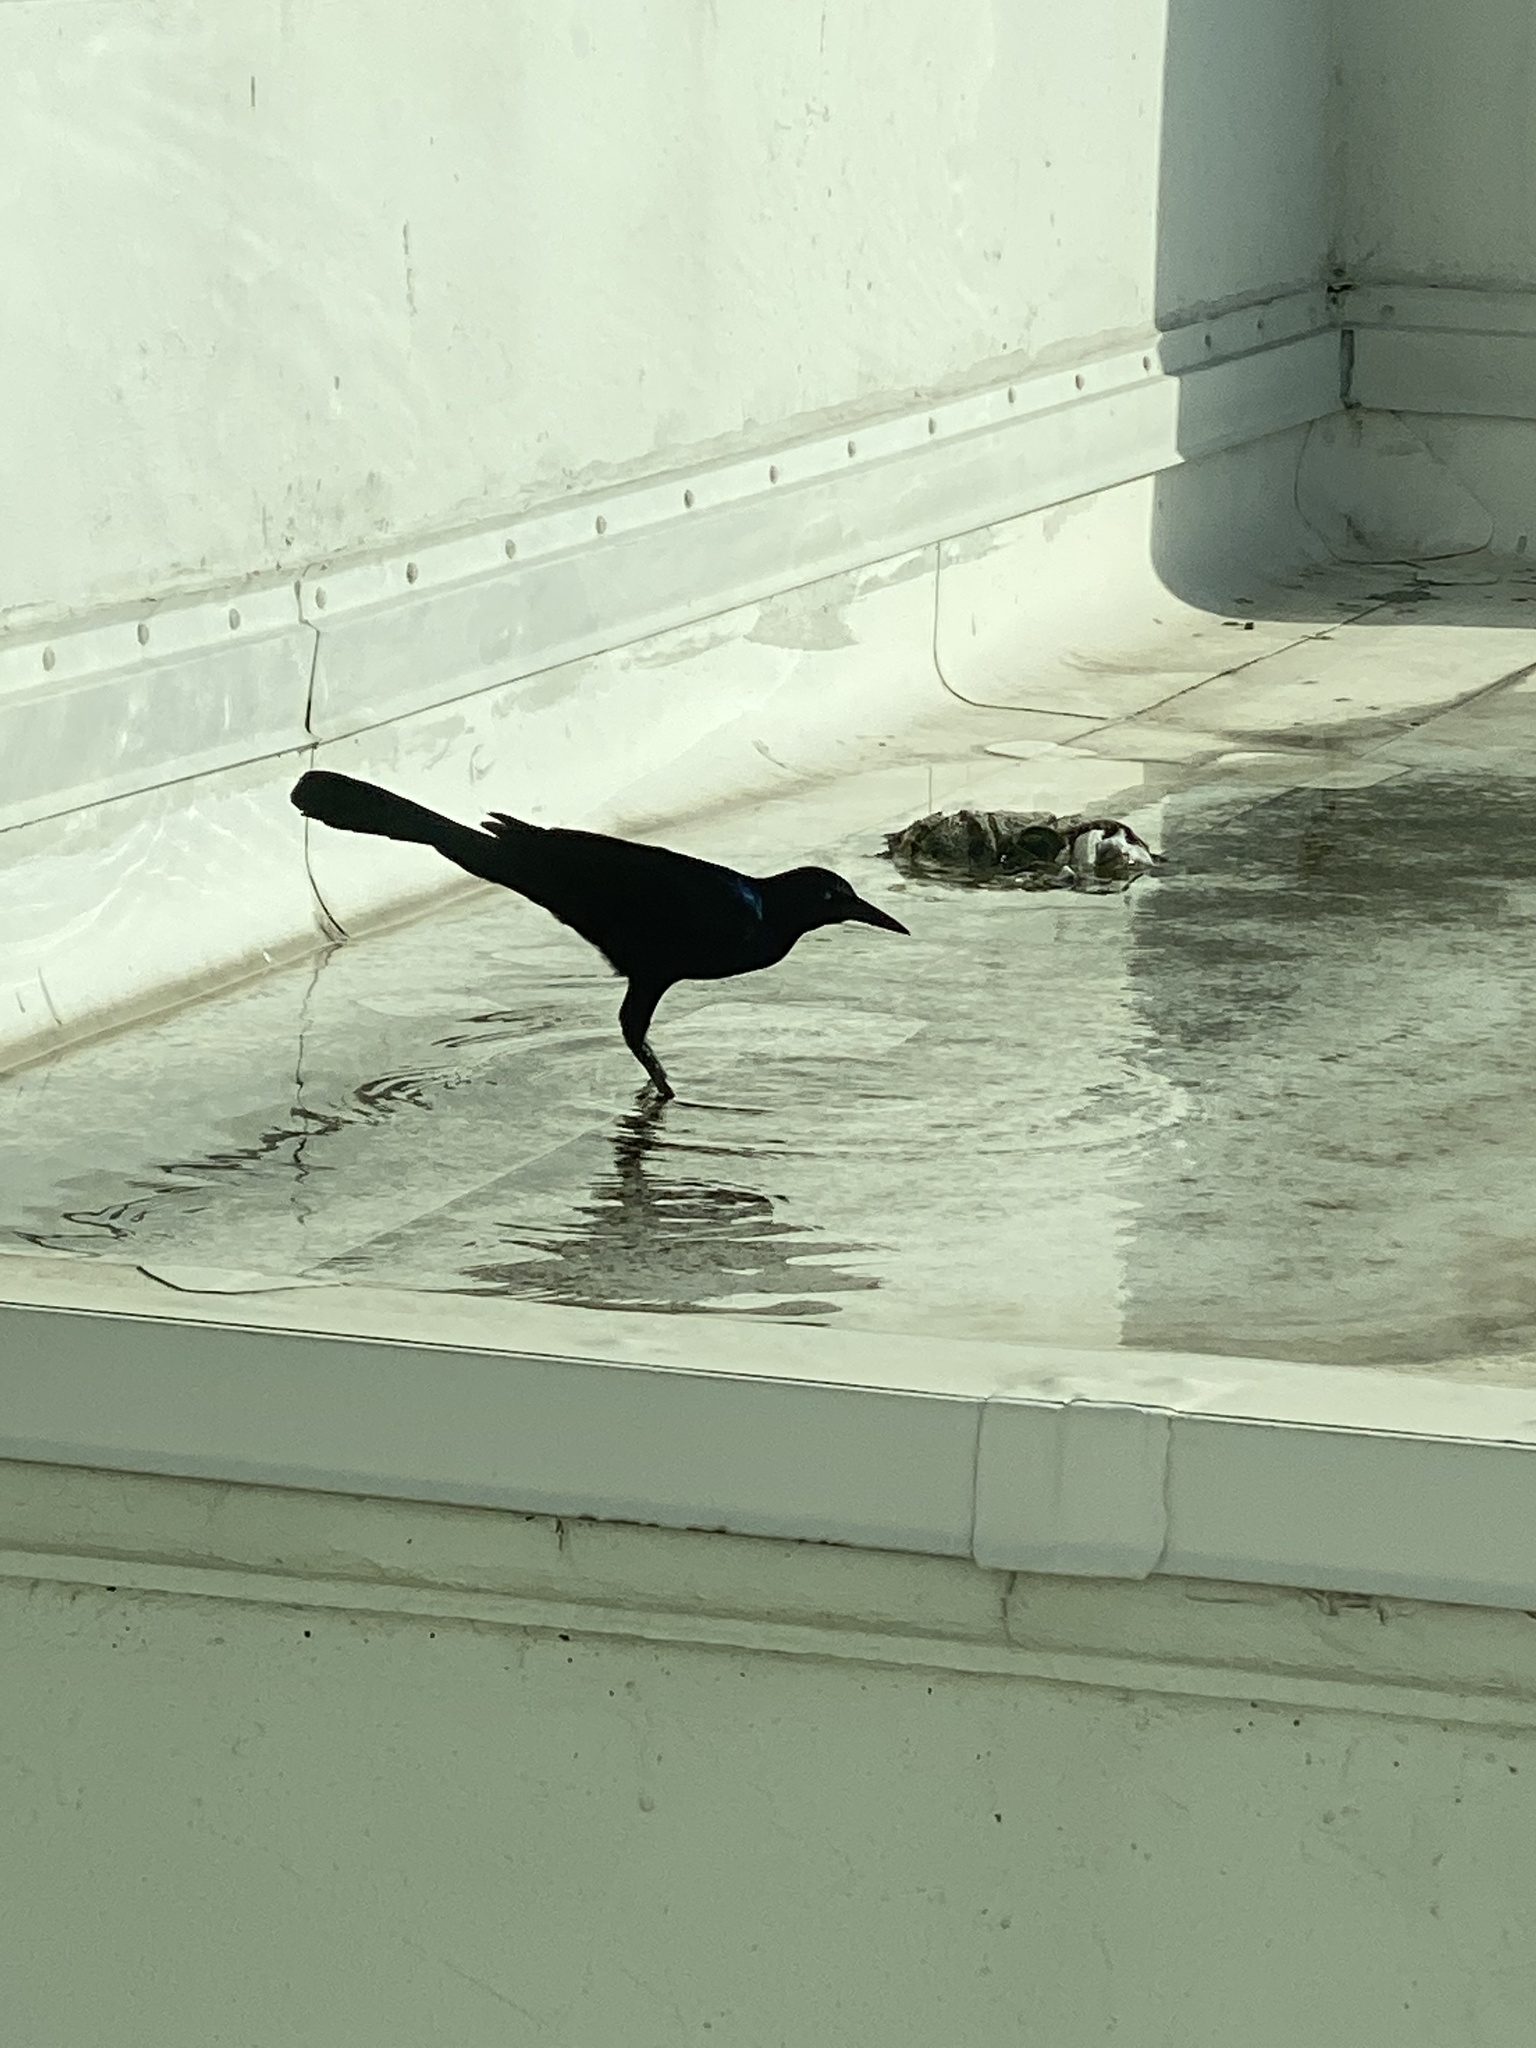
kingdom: Animalia
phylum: Chordata
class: Aves
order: Passeriformes
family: Icteridae
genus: Quiscalus
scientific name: Quiscalus major
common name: Boat-tailed grackle
